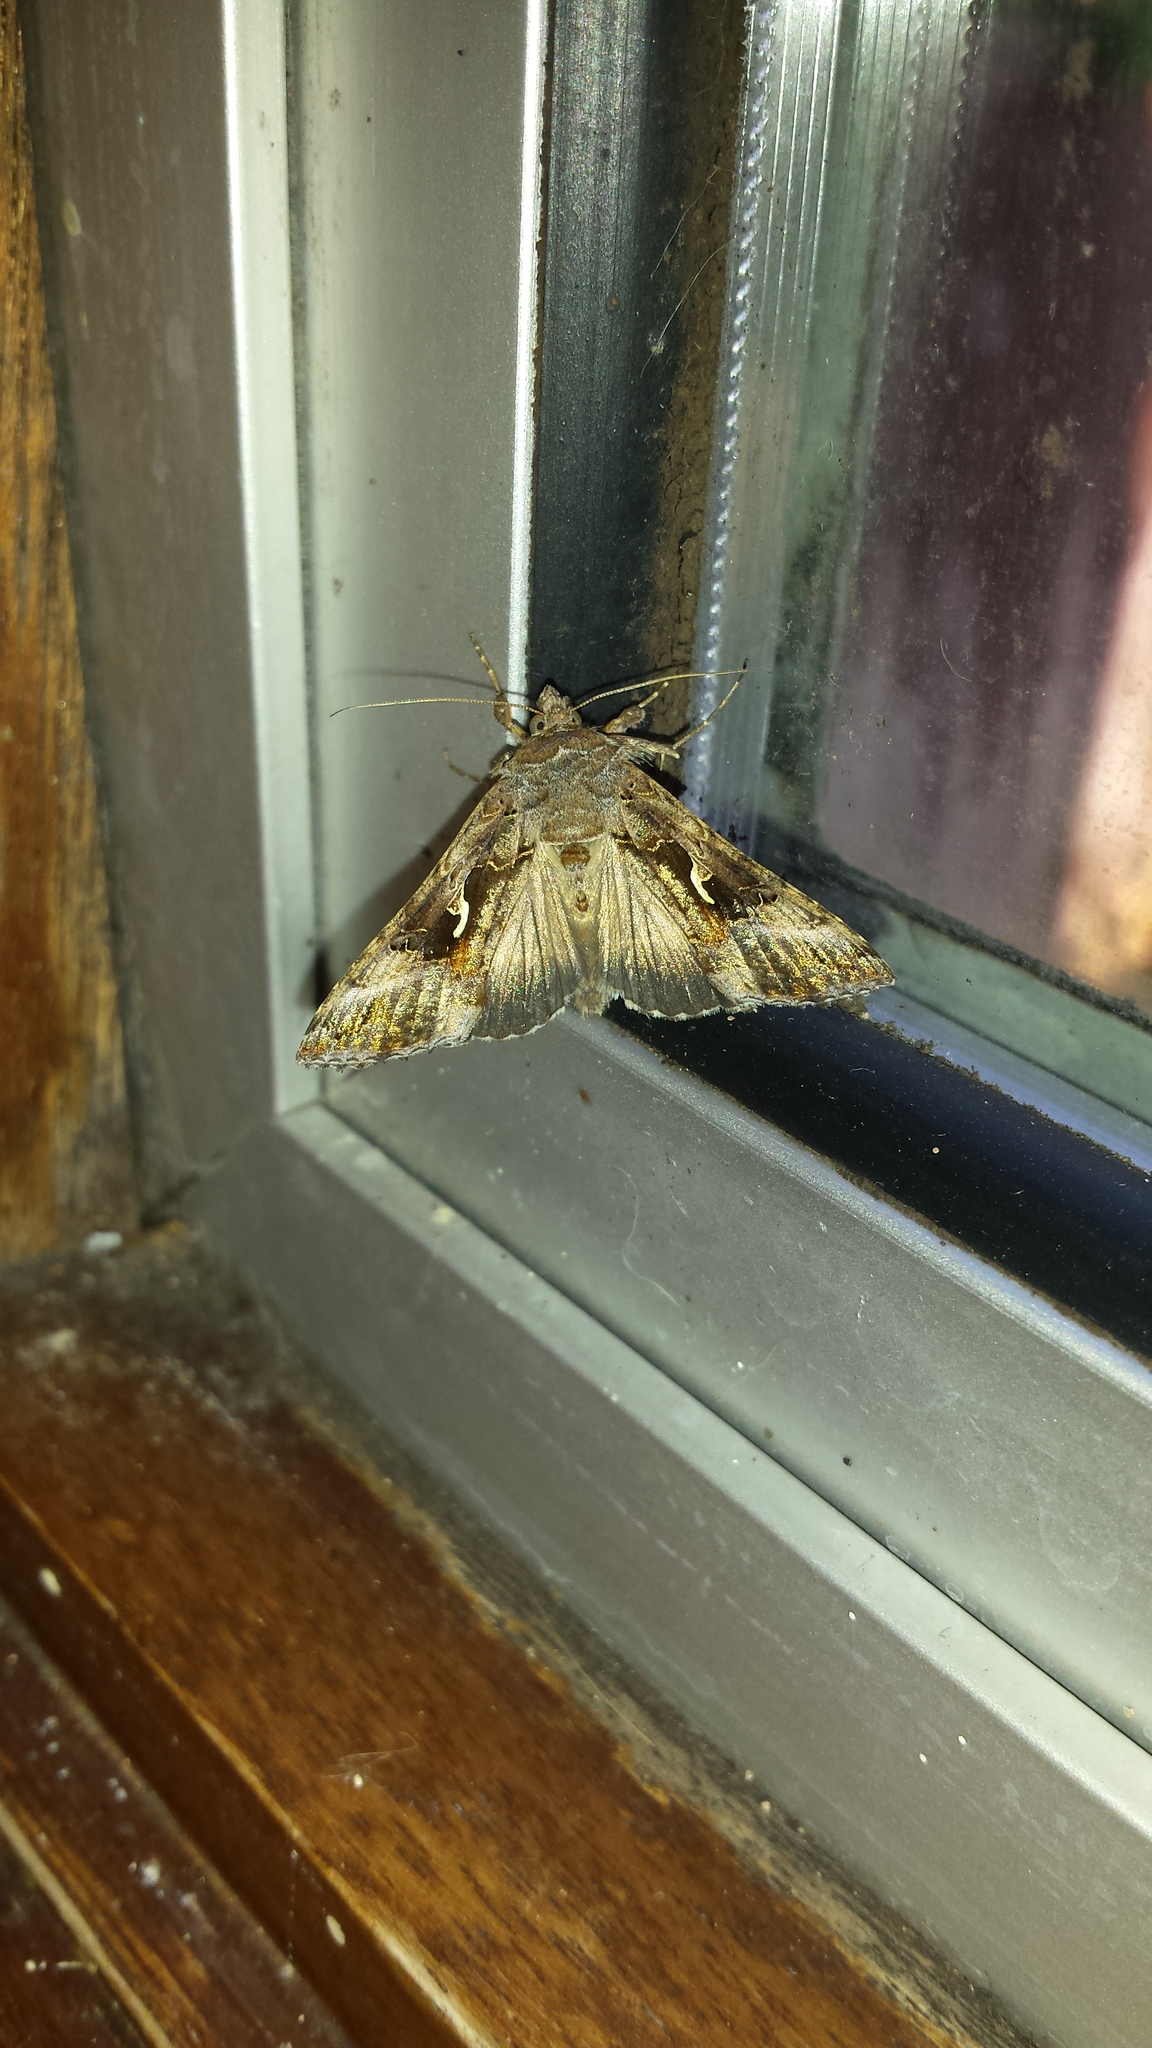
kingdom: Animalia
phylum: Arthropoda
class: Insecta
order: Lepidoptera
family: Noctuidae
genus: Autographa
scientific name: Autographa gamma
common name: Silver y
